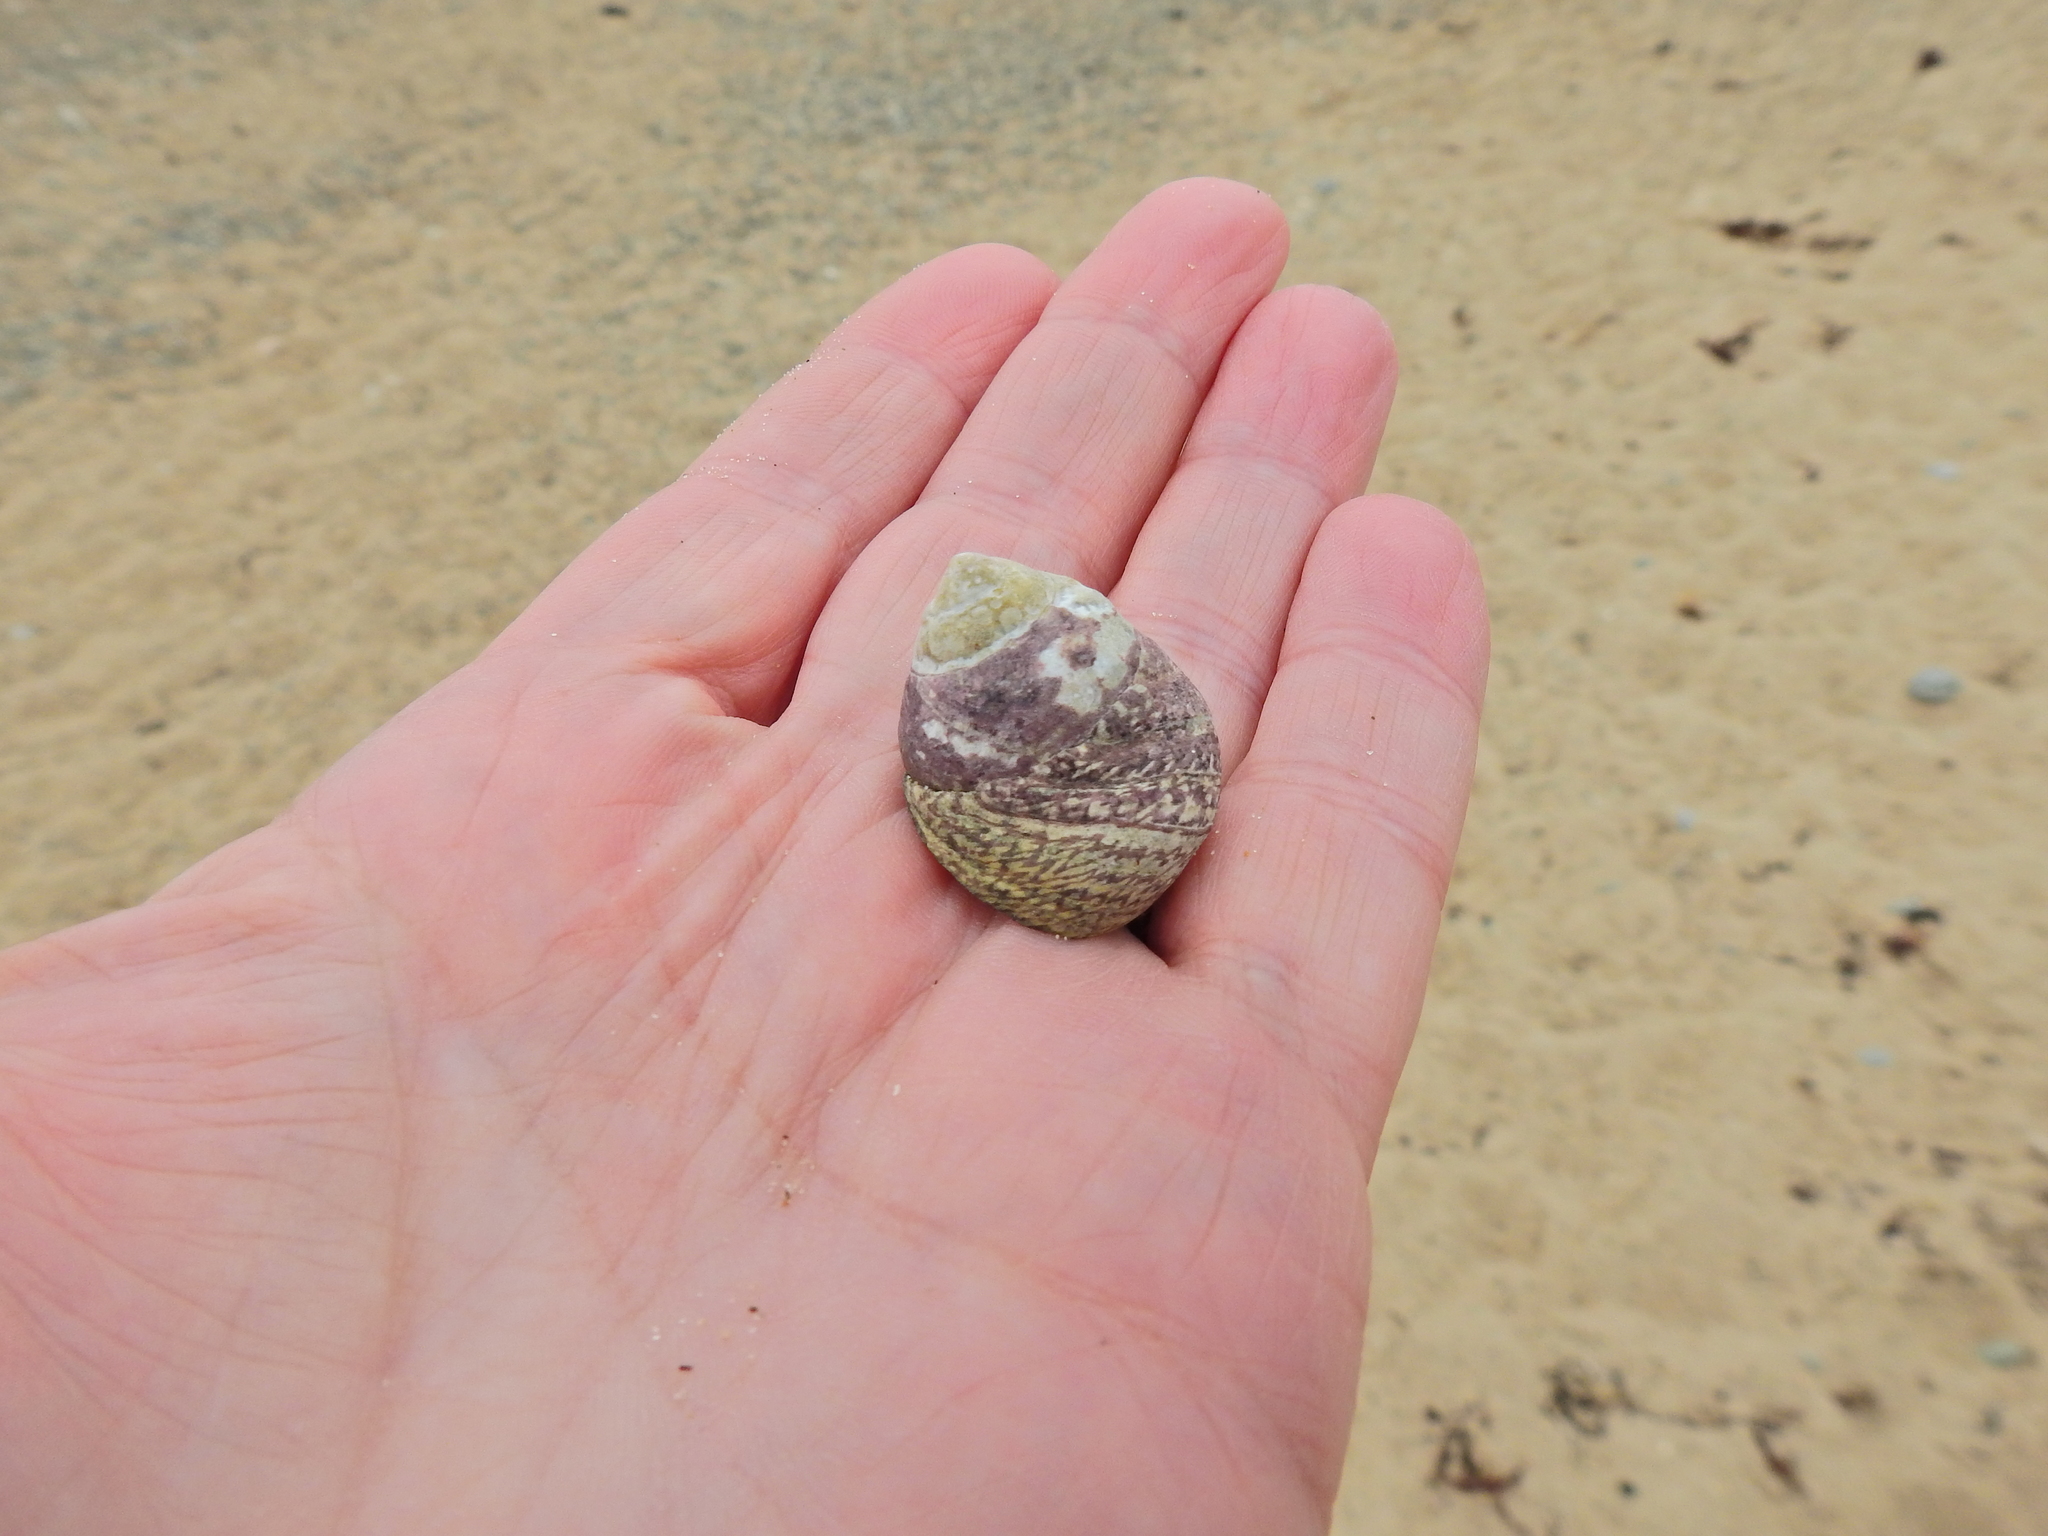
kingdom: Animalia
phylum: Mollusca
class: Gastropoda
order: Trochida
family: Trochidae
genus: Phorcus
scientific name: Phorcus lineatus
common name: Toothed top shell
